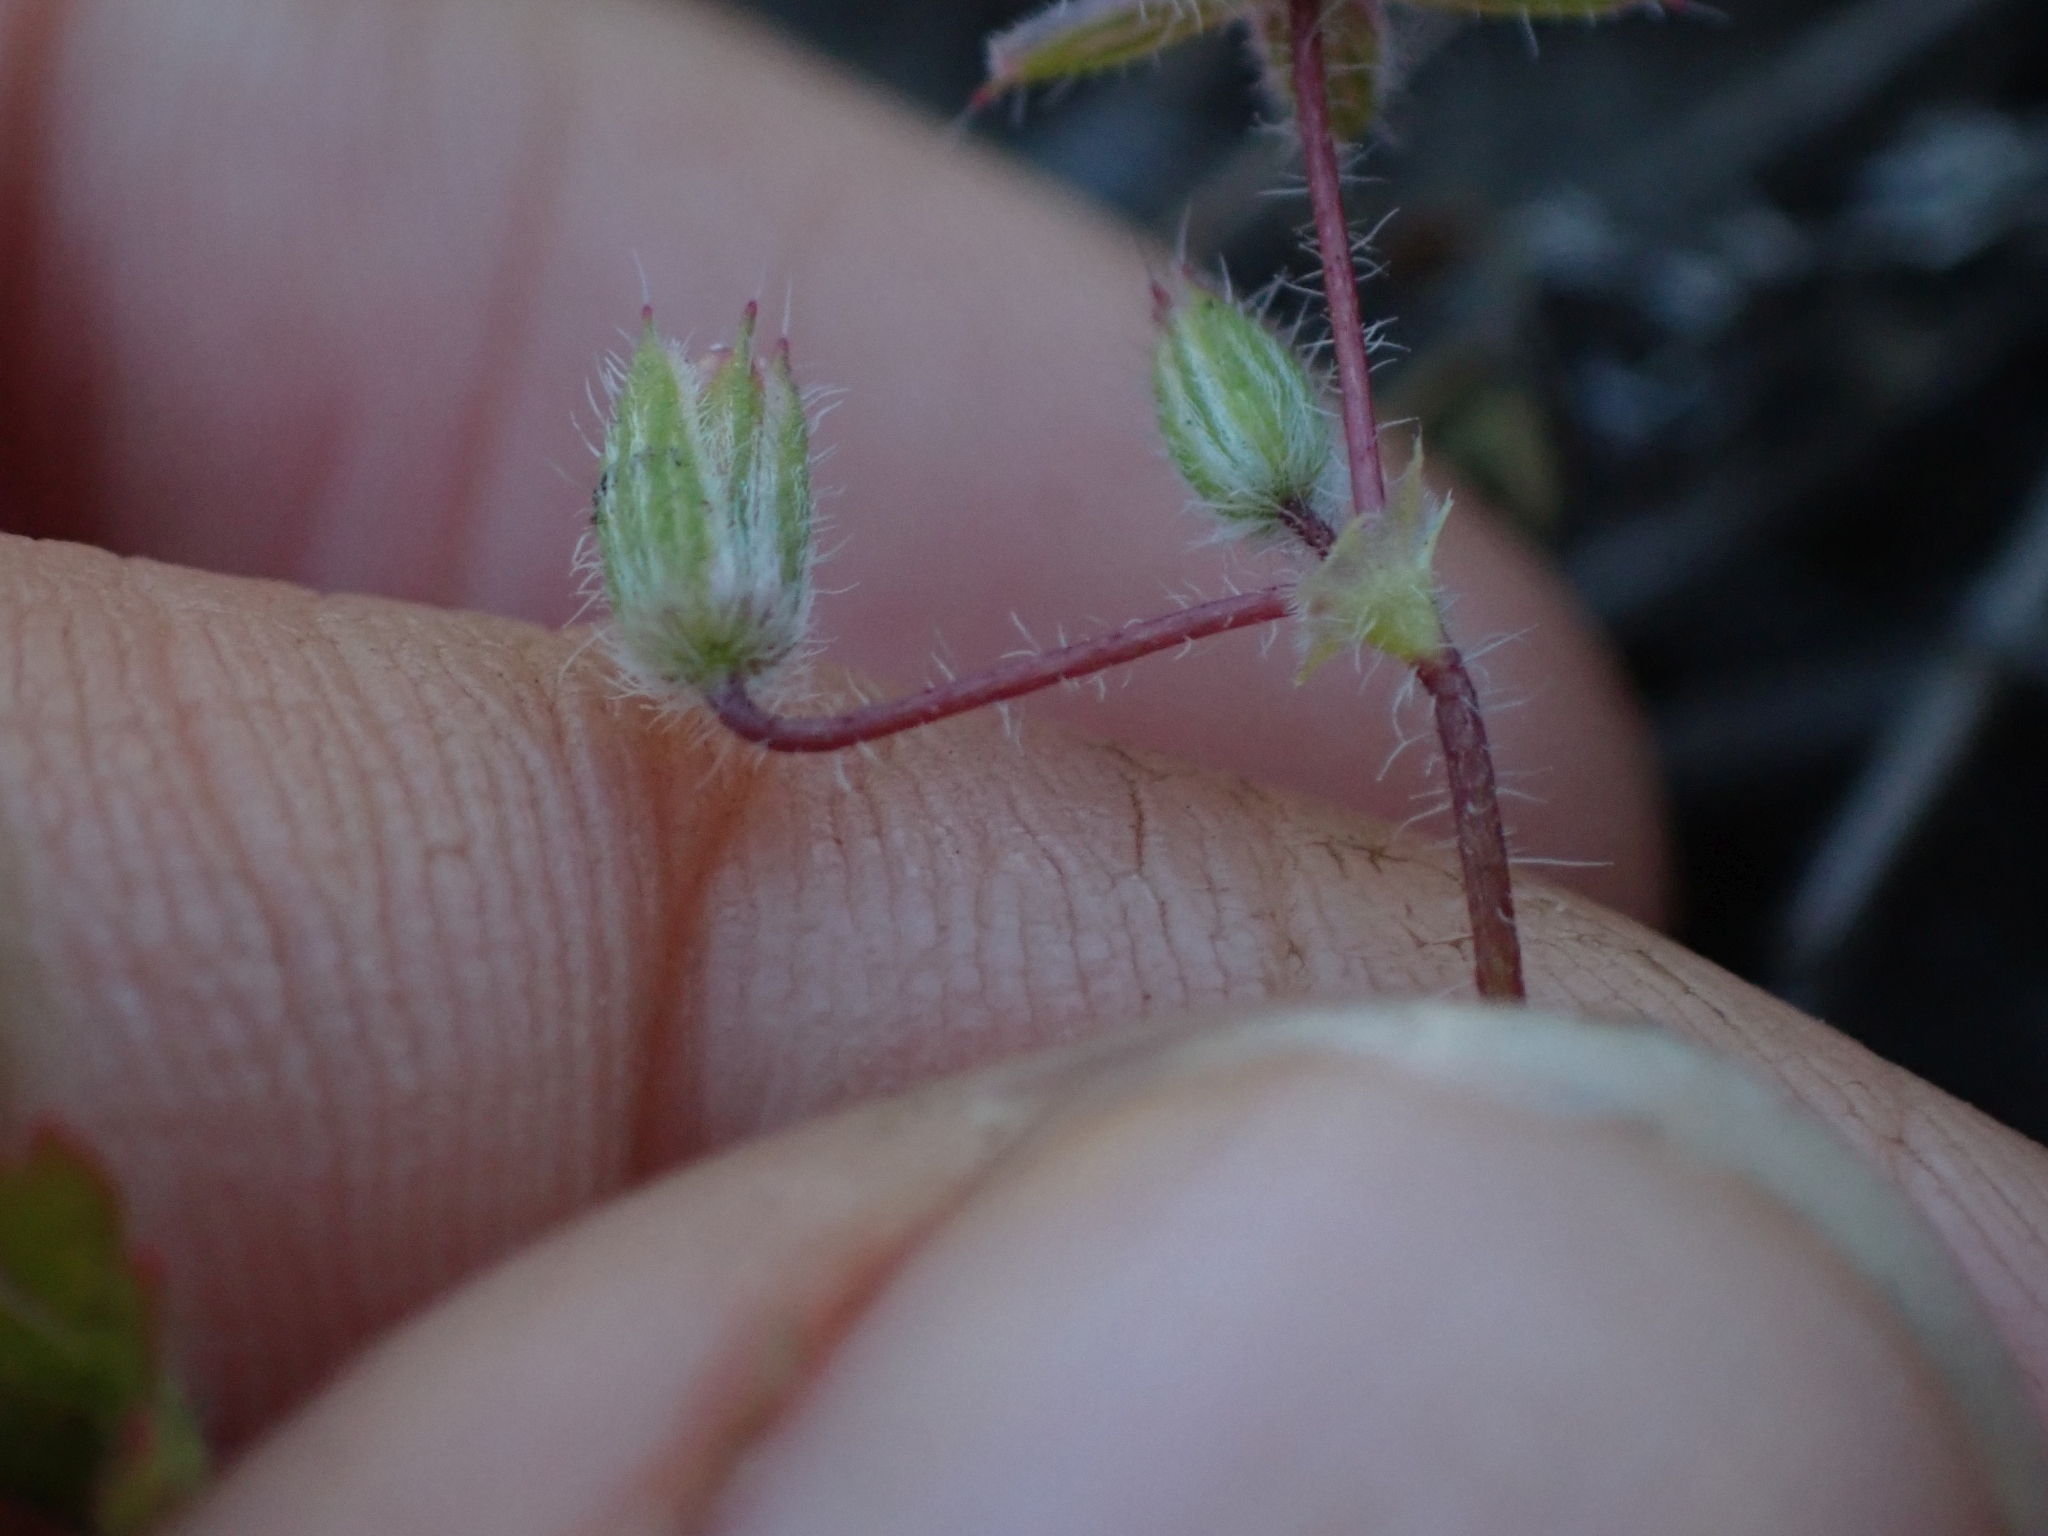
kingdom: Plantae
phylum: Tracheophyta
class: Magnoliopsida
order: Geraniales
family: Geraniaceae
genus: Erodium
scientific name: Erodium cicutarium
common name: Common stork's-bill
